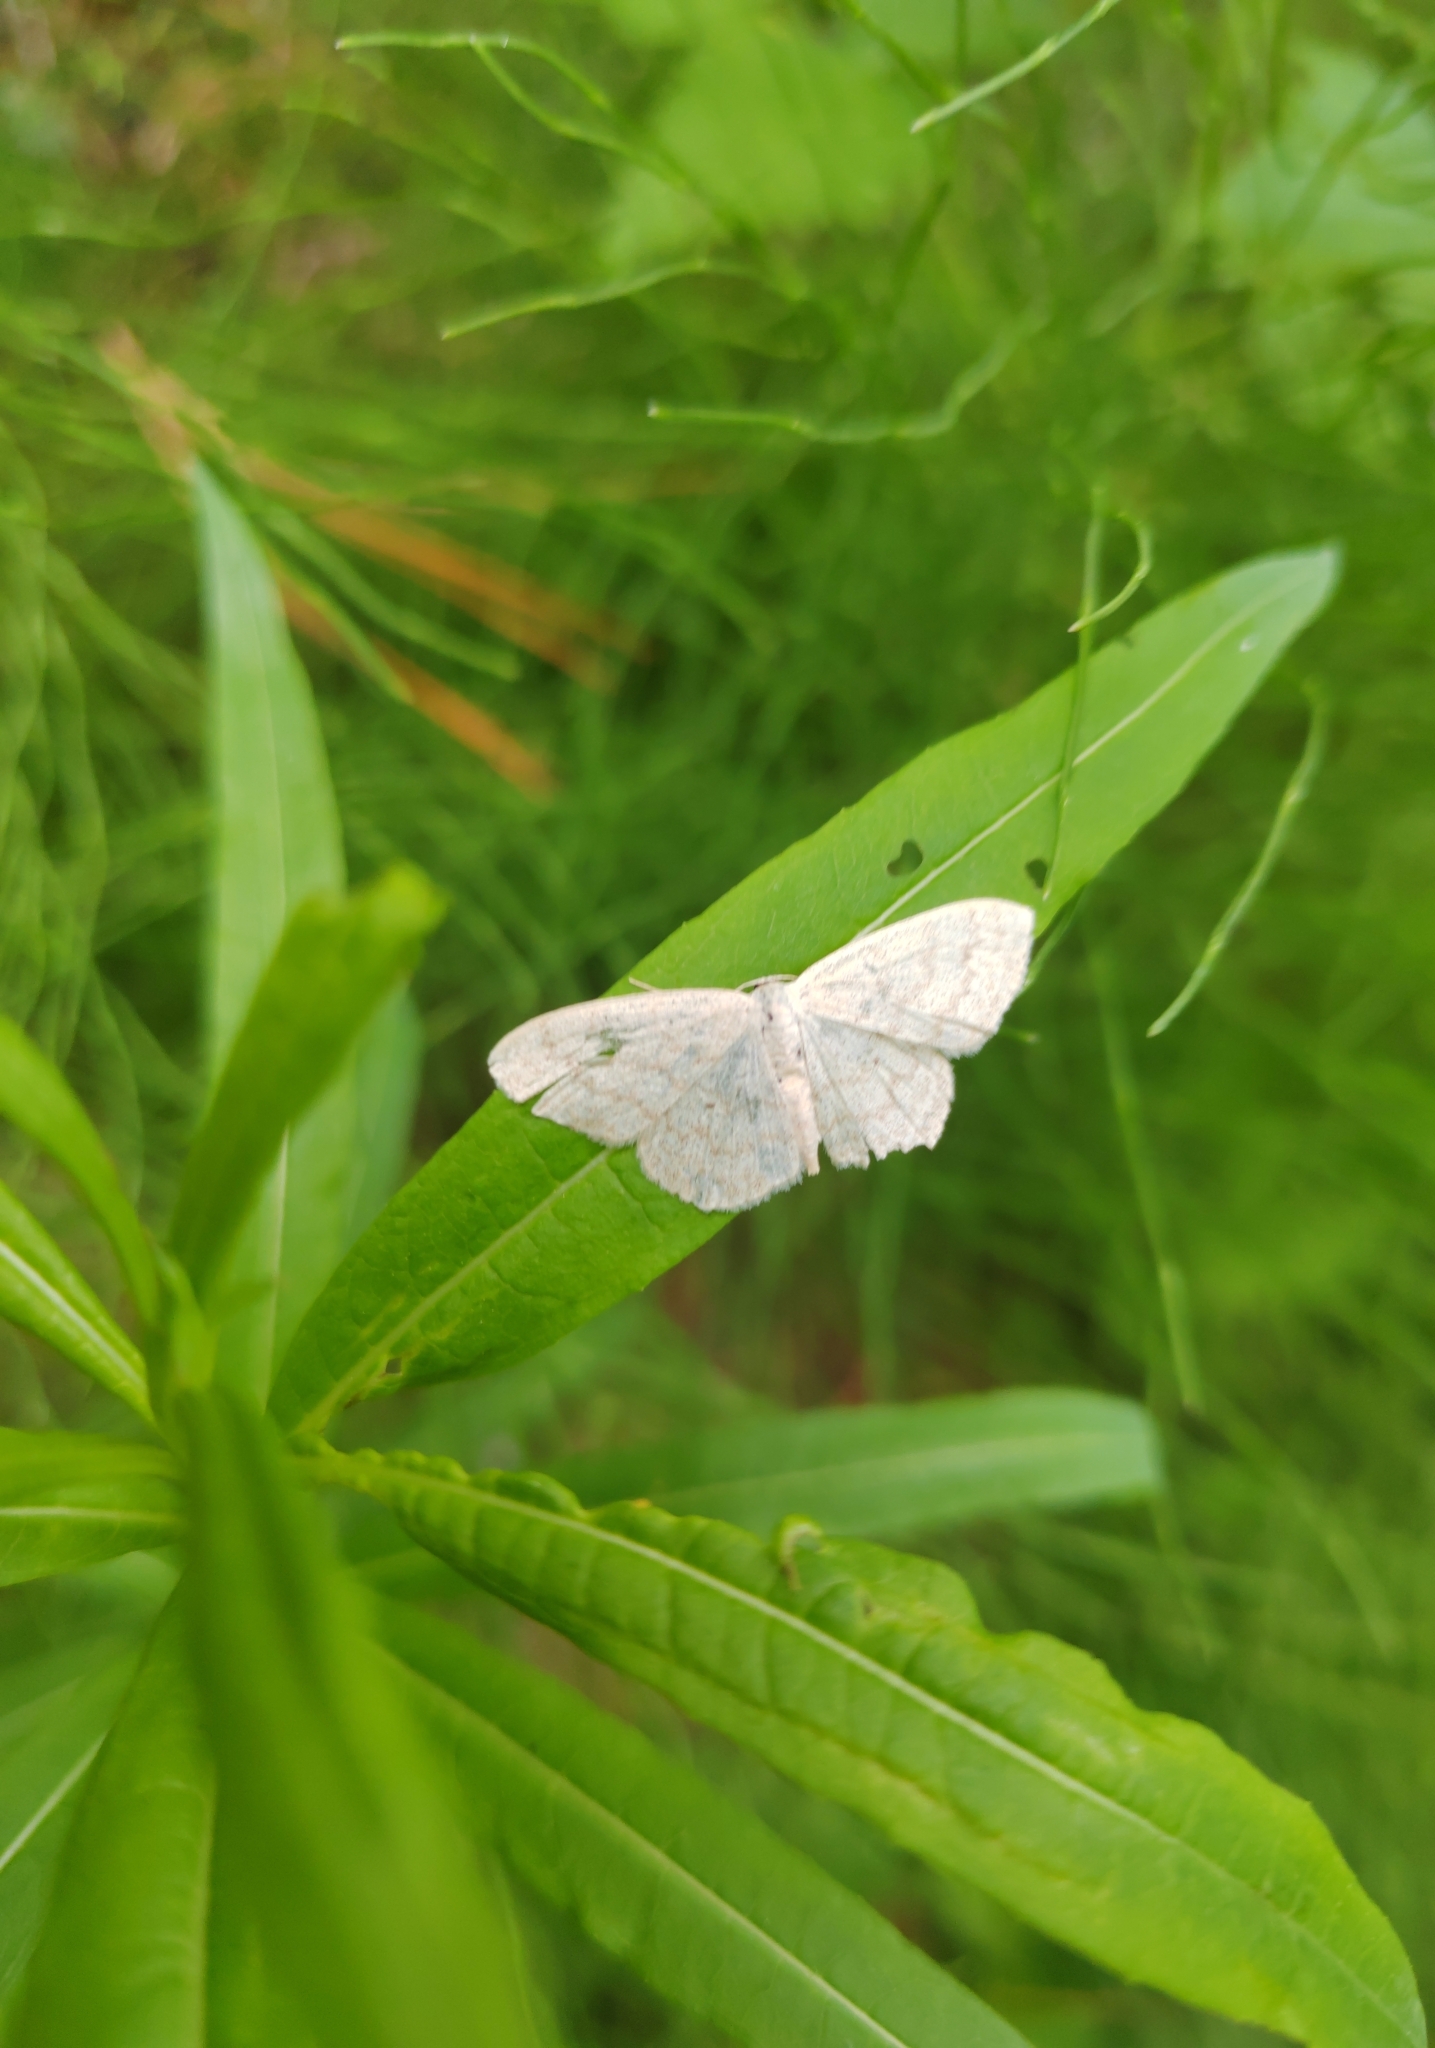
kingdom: Animalia
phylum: Arthropoda
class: Insecta
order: Lepidoptera
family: Geometridae
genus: Scopula
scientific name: Scopula floslactata
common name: Cream wave
